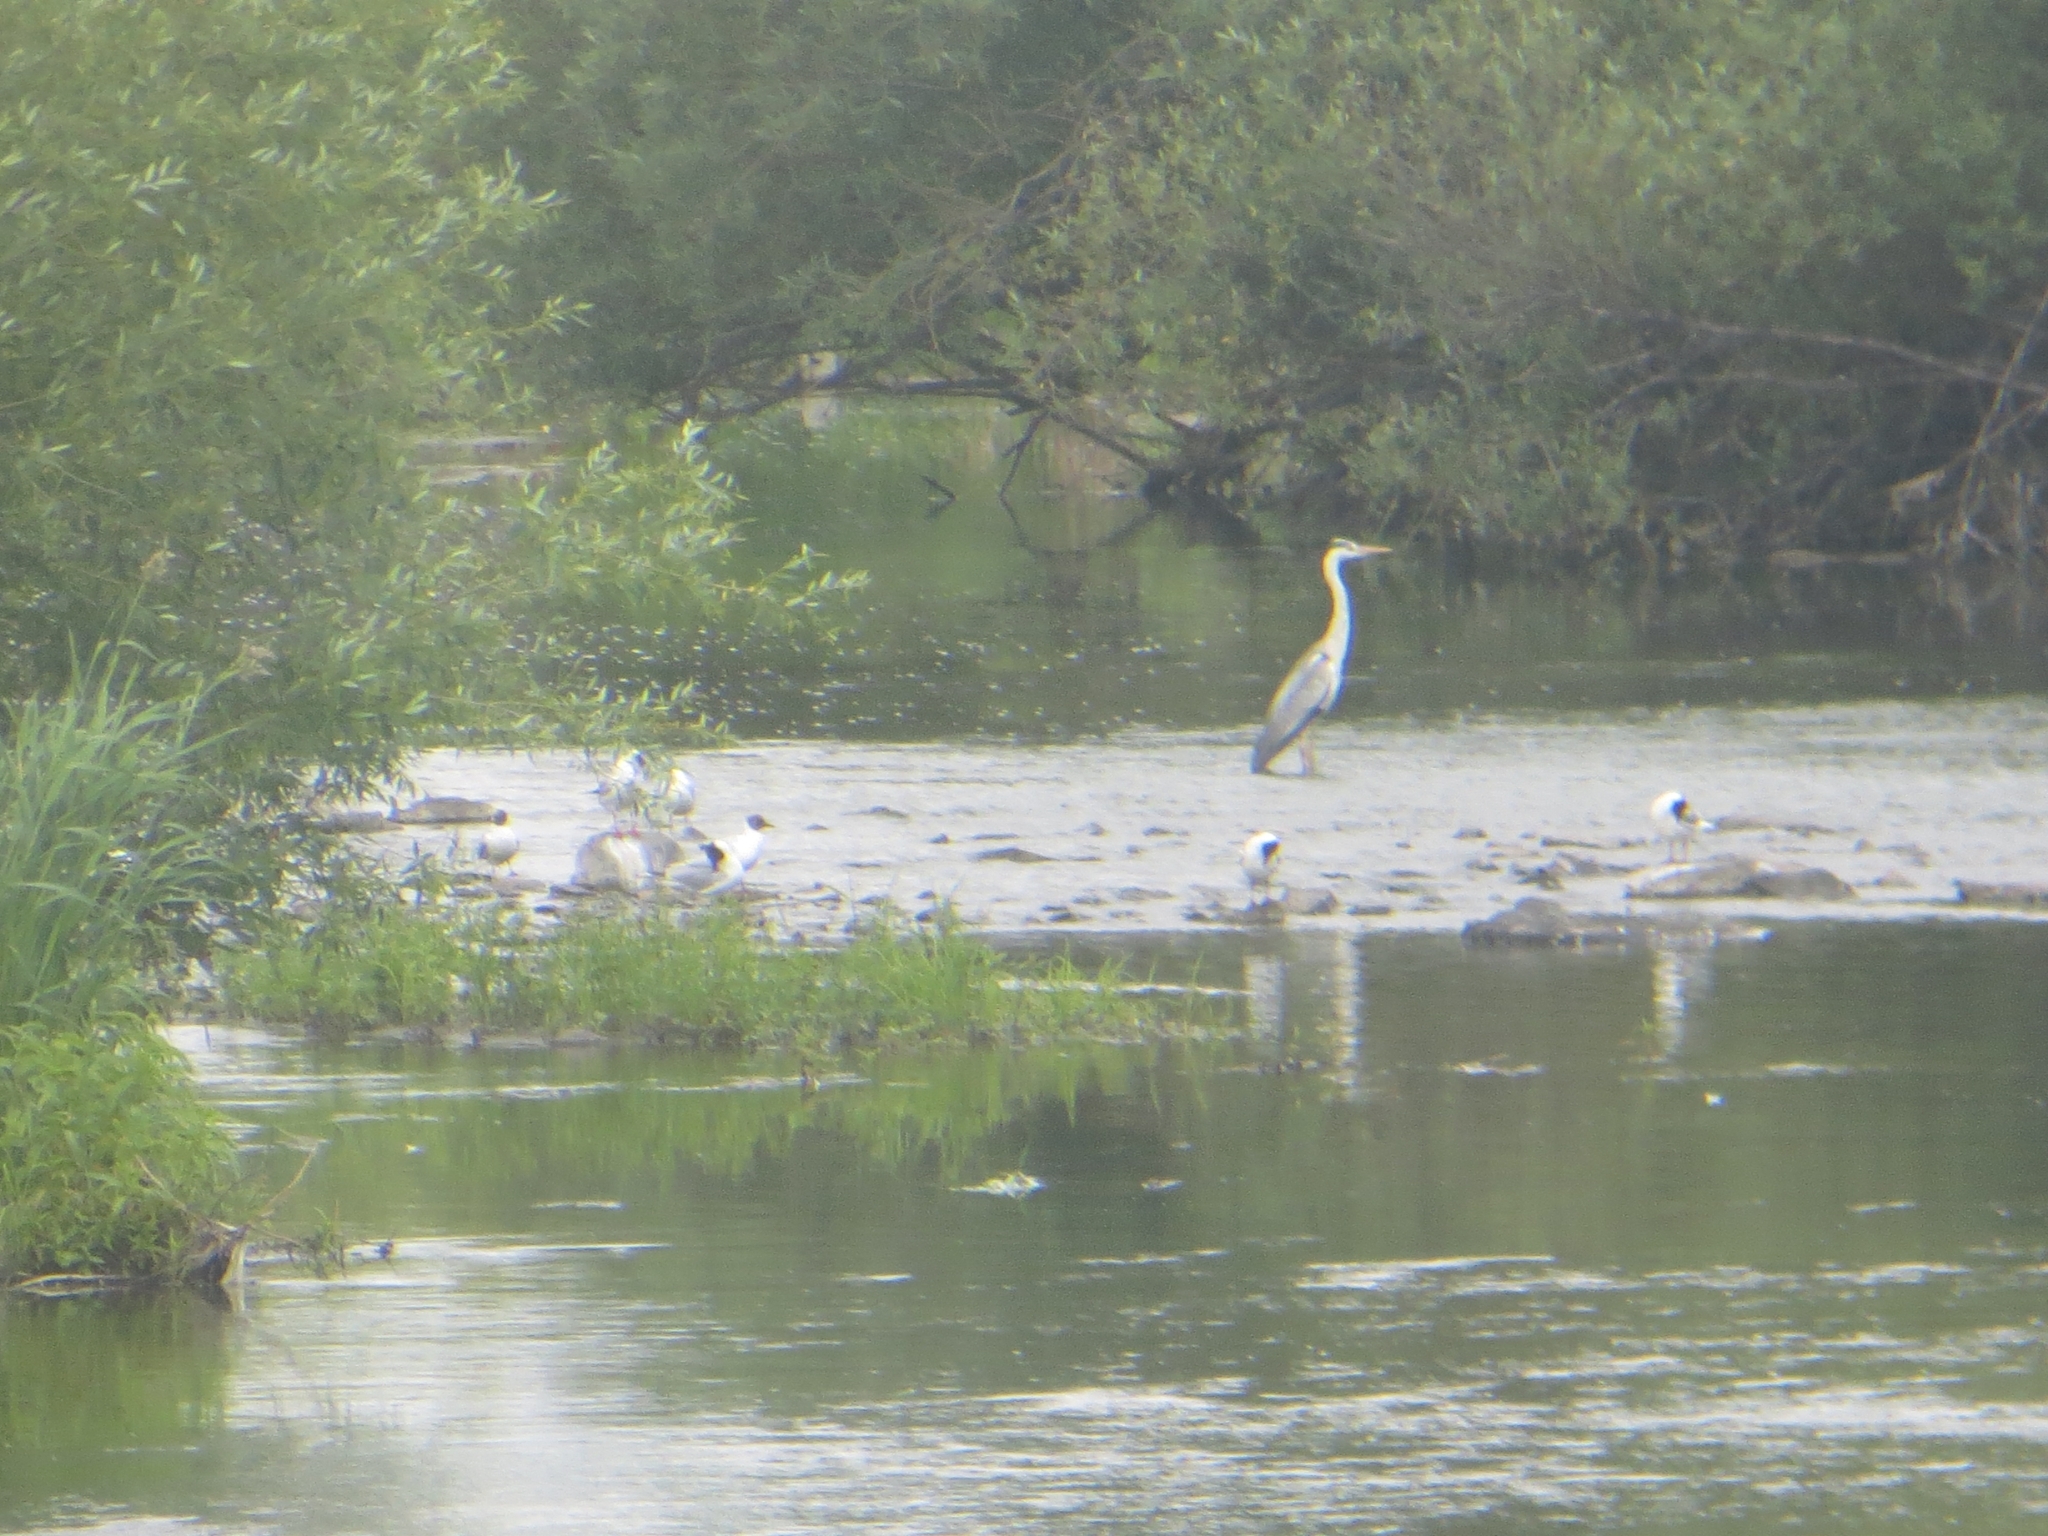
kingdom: Animalia
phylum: Chordata
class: Aves
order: Pelecaniformes
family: Ardeidae
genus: Ardea
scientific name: Ardea cinerea
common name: Grey heron
